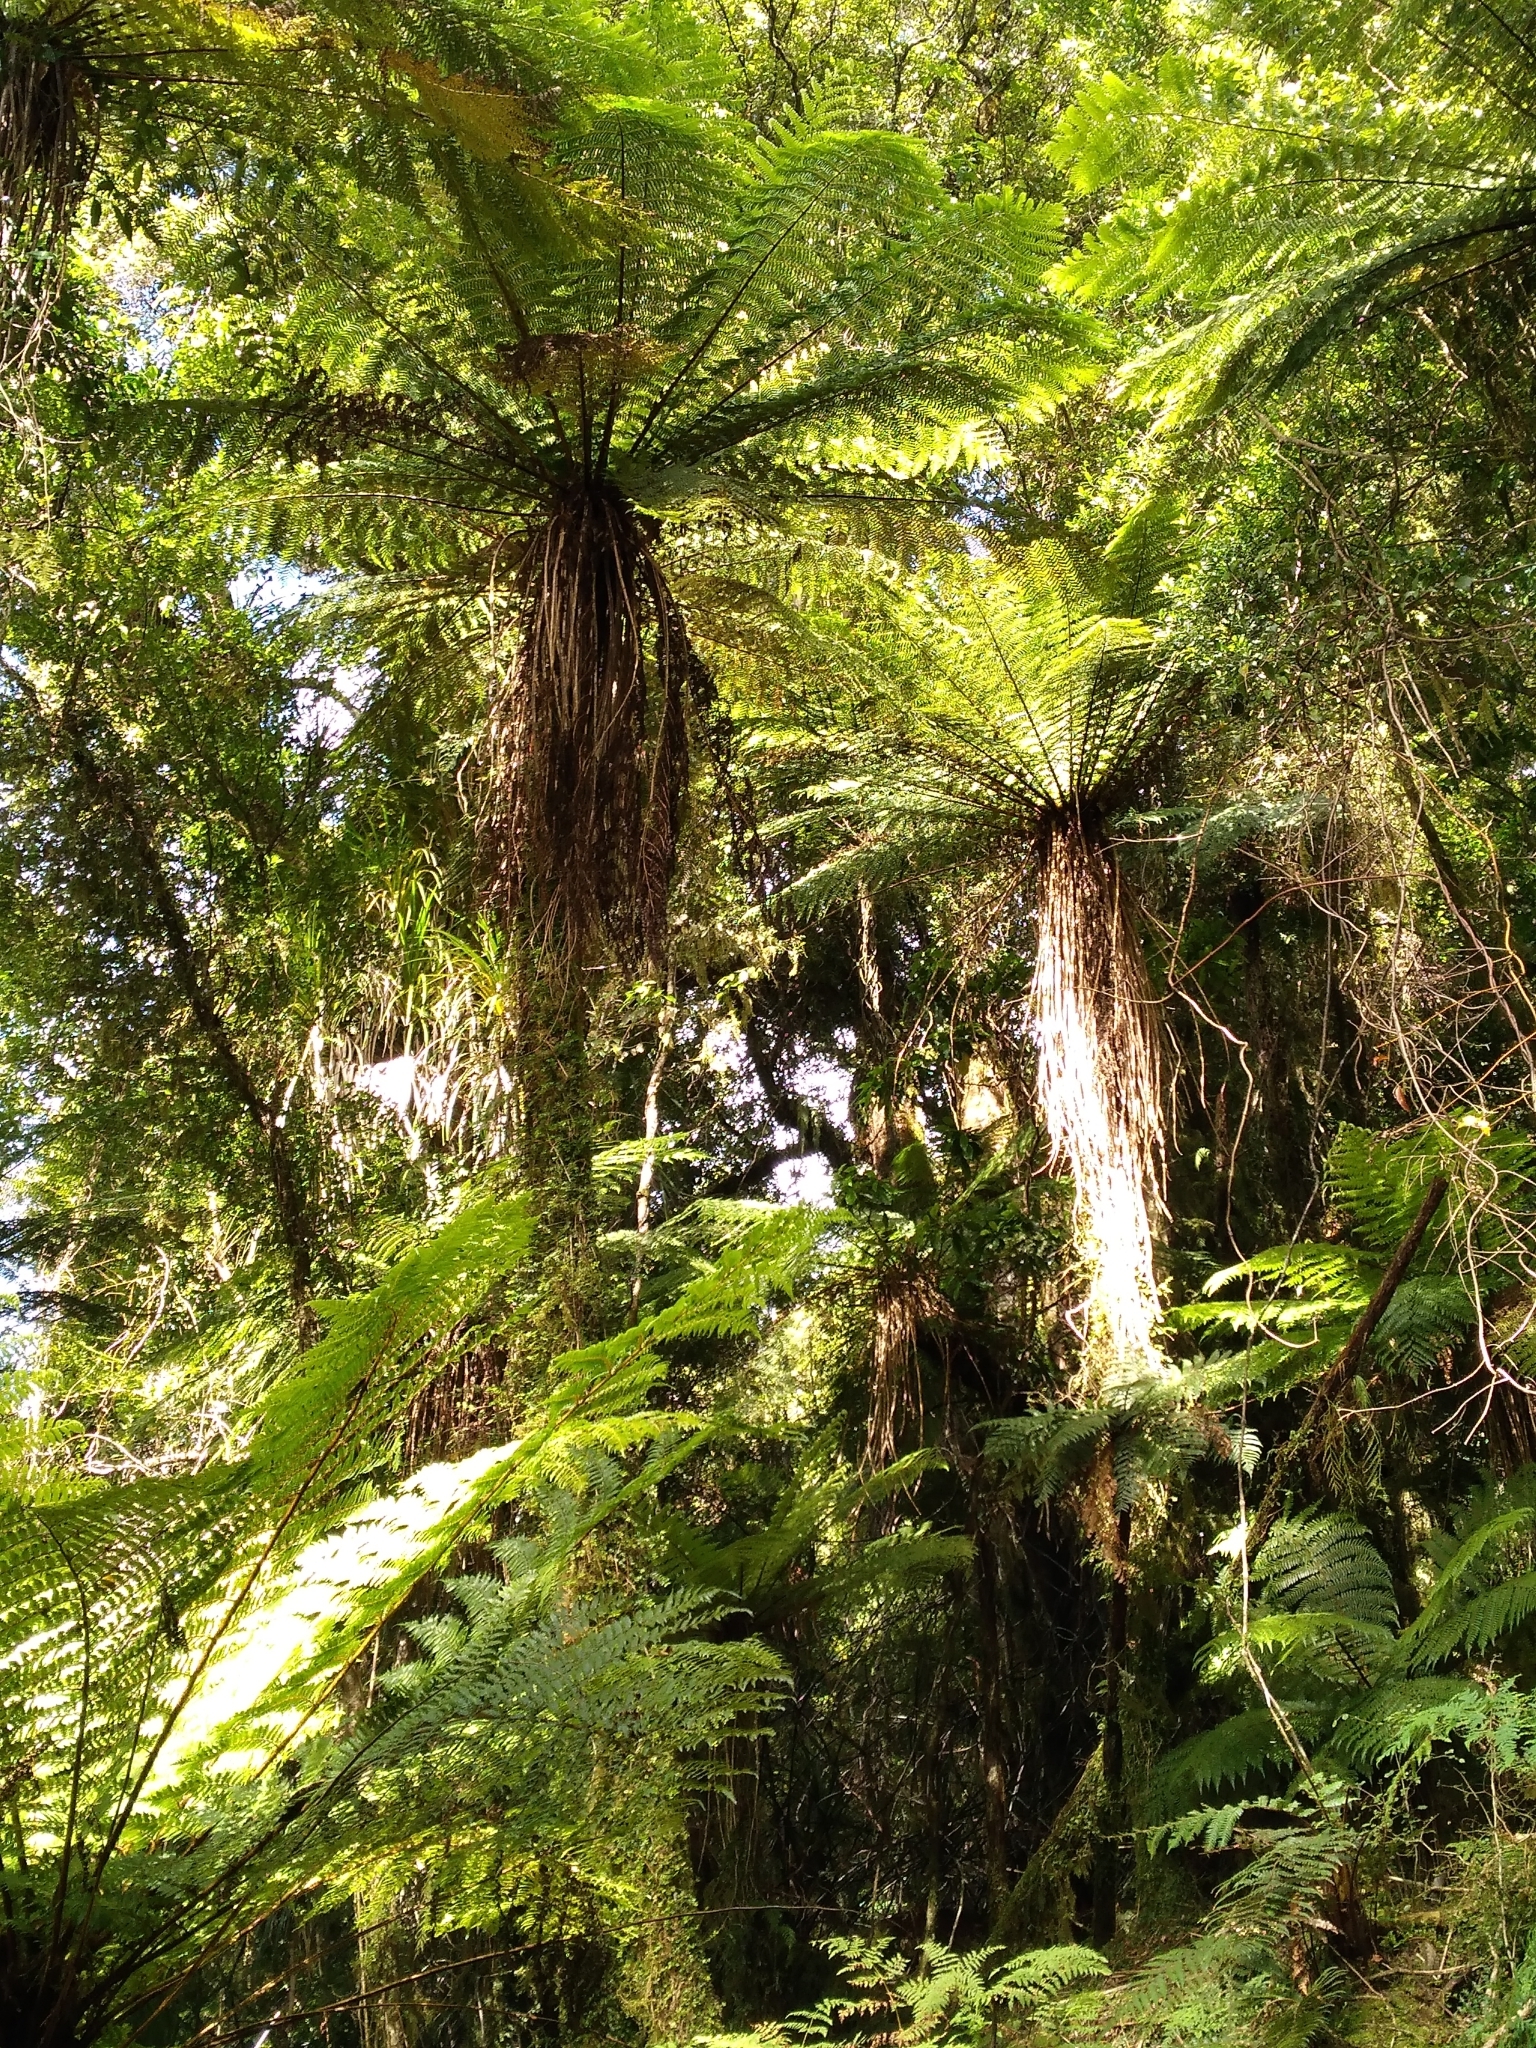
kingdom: Plantae
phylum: Tracheophyta
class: Polypodiopsida
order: Cyatheales
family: Cyatheaceae
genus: Alsophila
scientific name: Alsophila smithii
